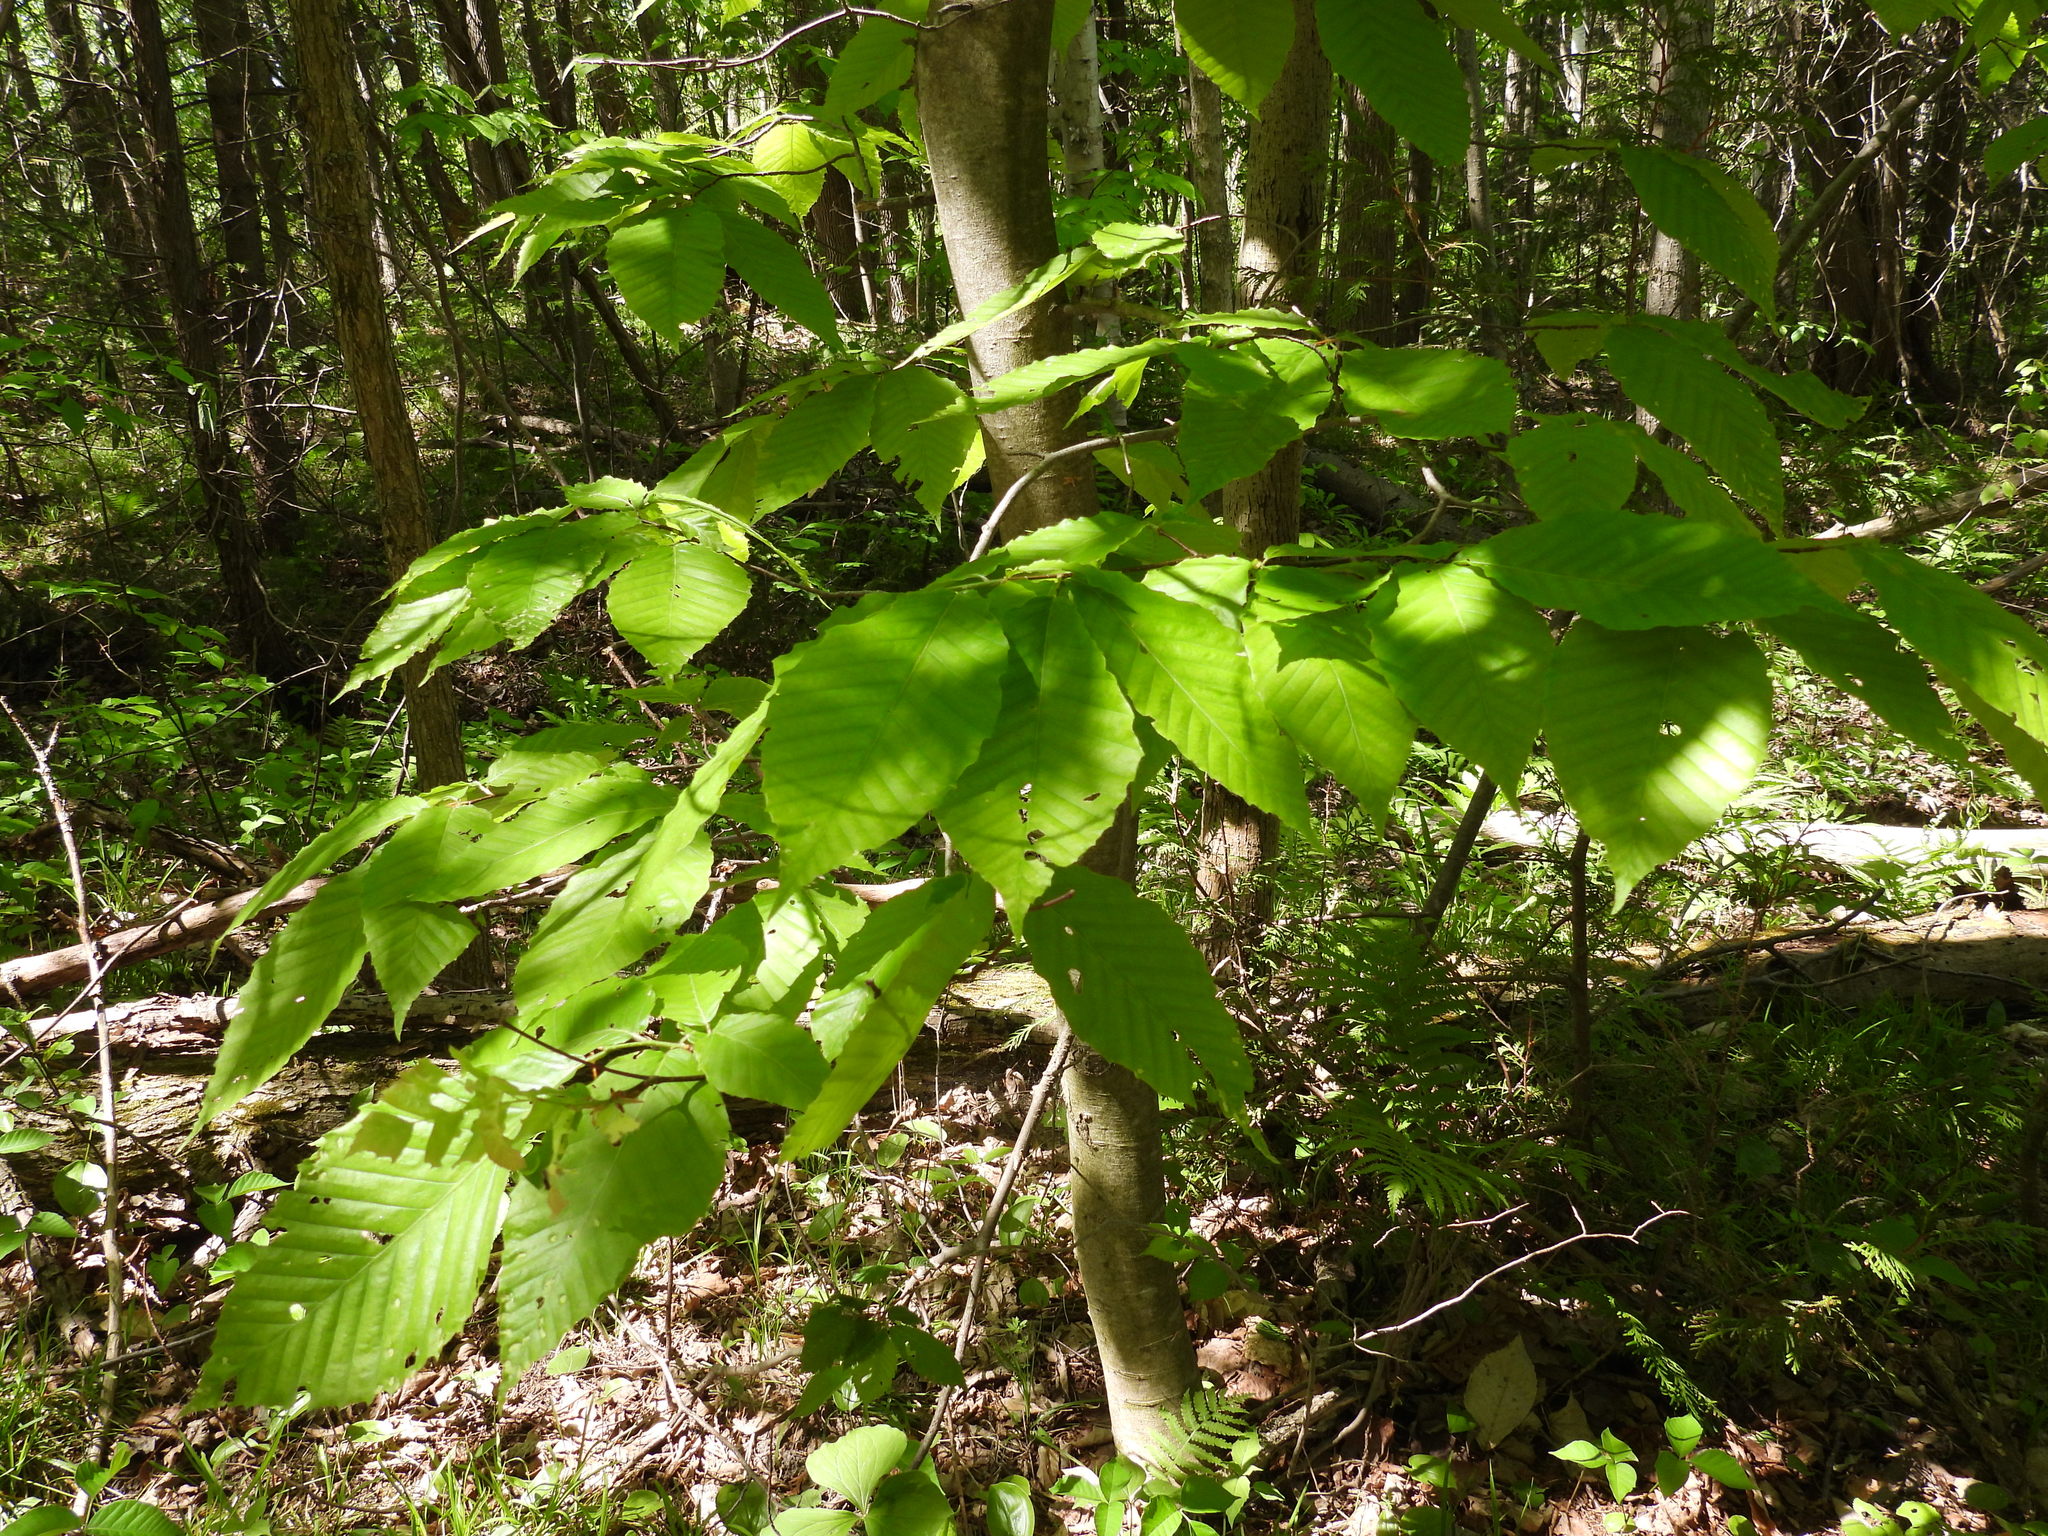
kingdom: Plantae
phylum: Tracheophyta
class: Magnoliopsida
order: Fagales
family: Fagaceae
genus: Fagus
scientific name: Fagus grandifolia
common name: American beech
